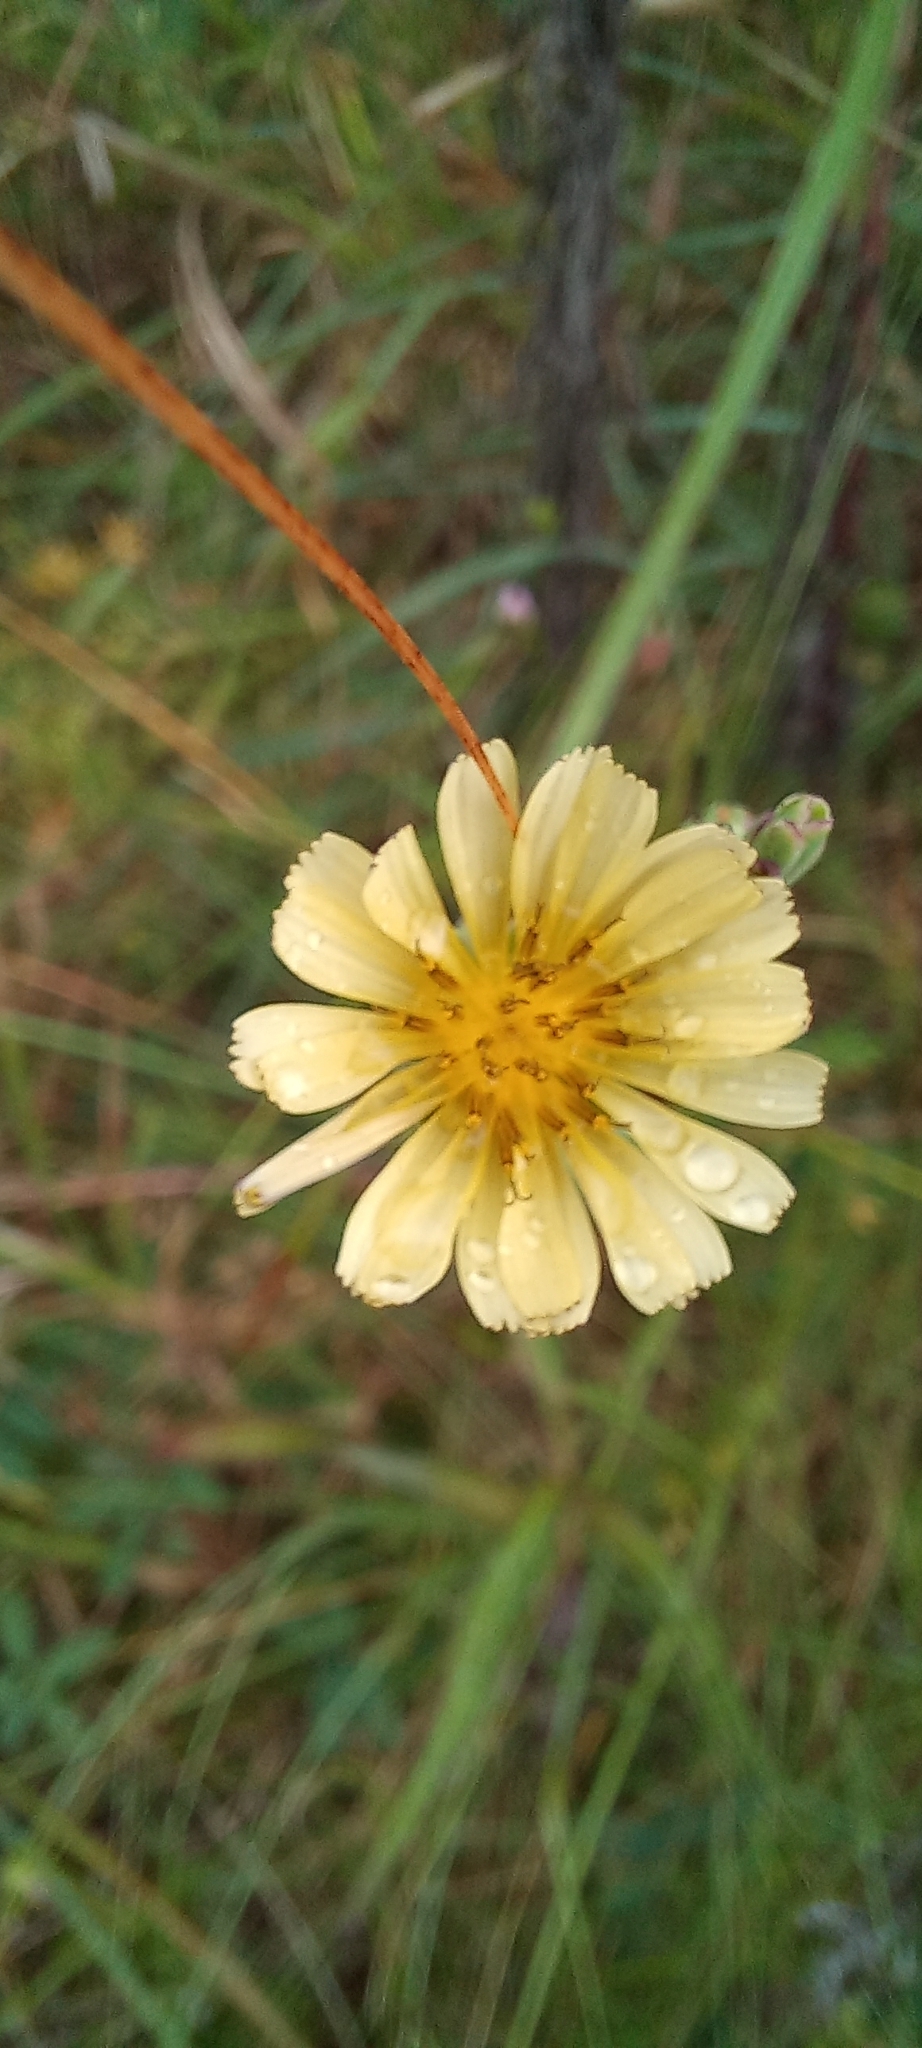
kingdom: Plantae
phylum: Tracheophyta
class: Magnoliopsida
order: Asterales
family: Asteraceae
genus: Lactuca
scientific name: Lactuca indica
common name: Wild lettuce
